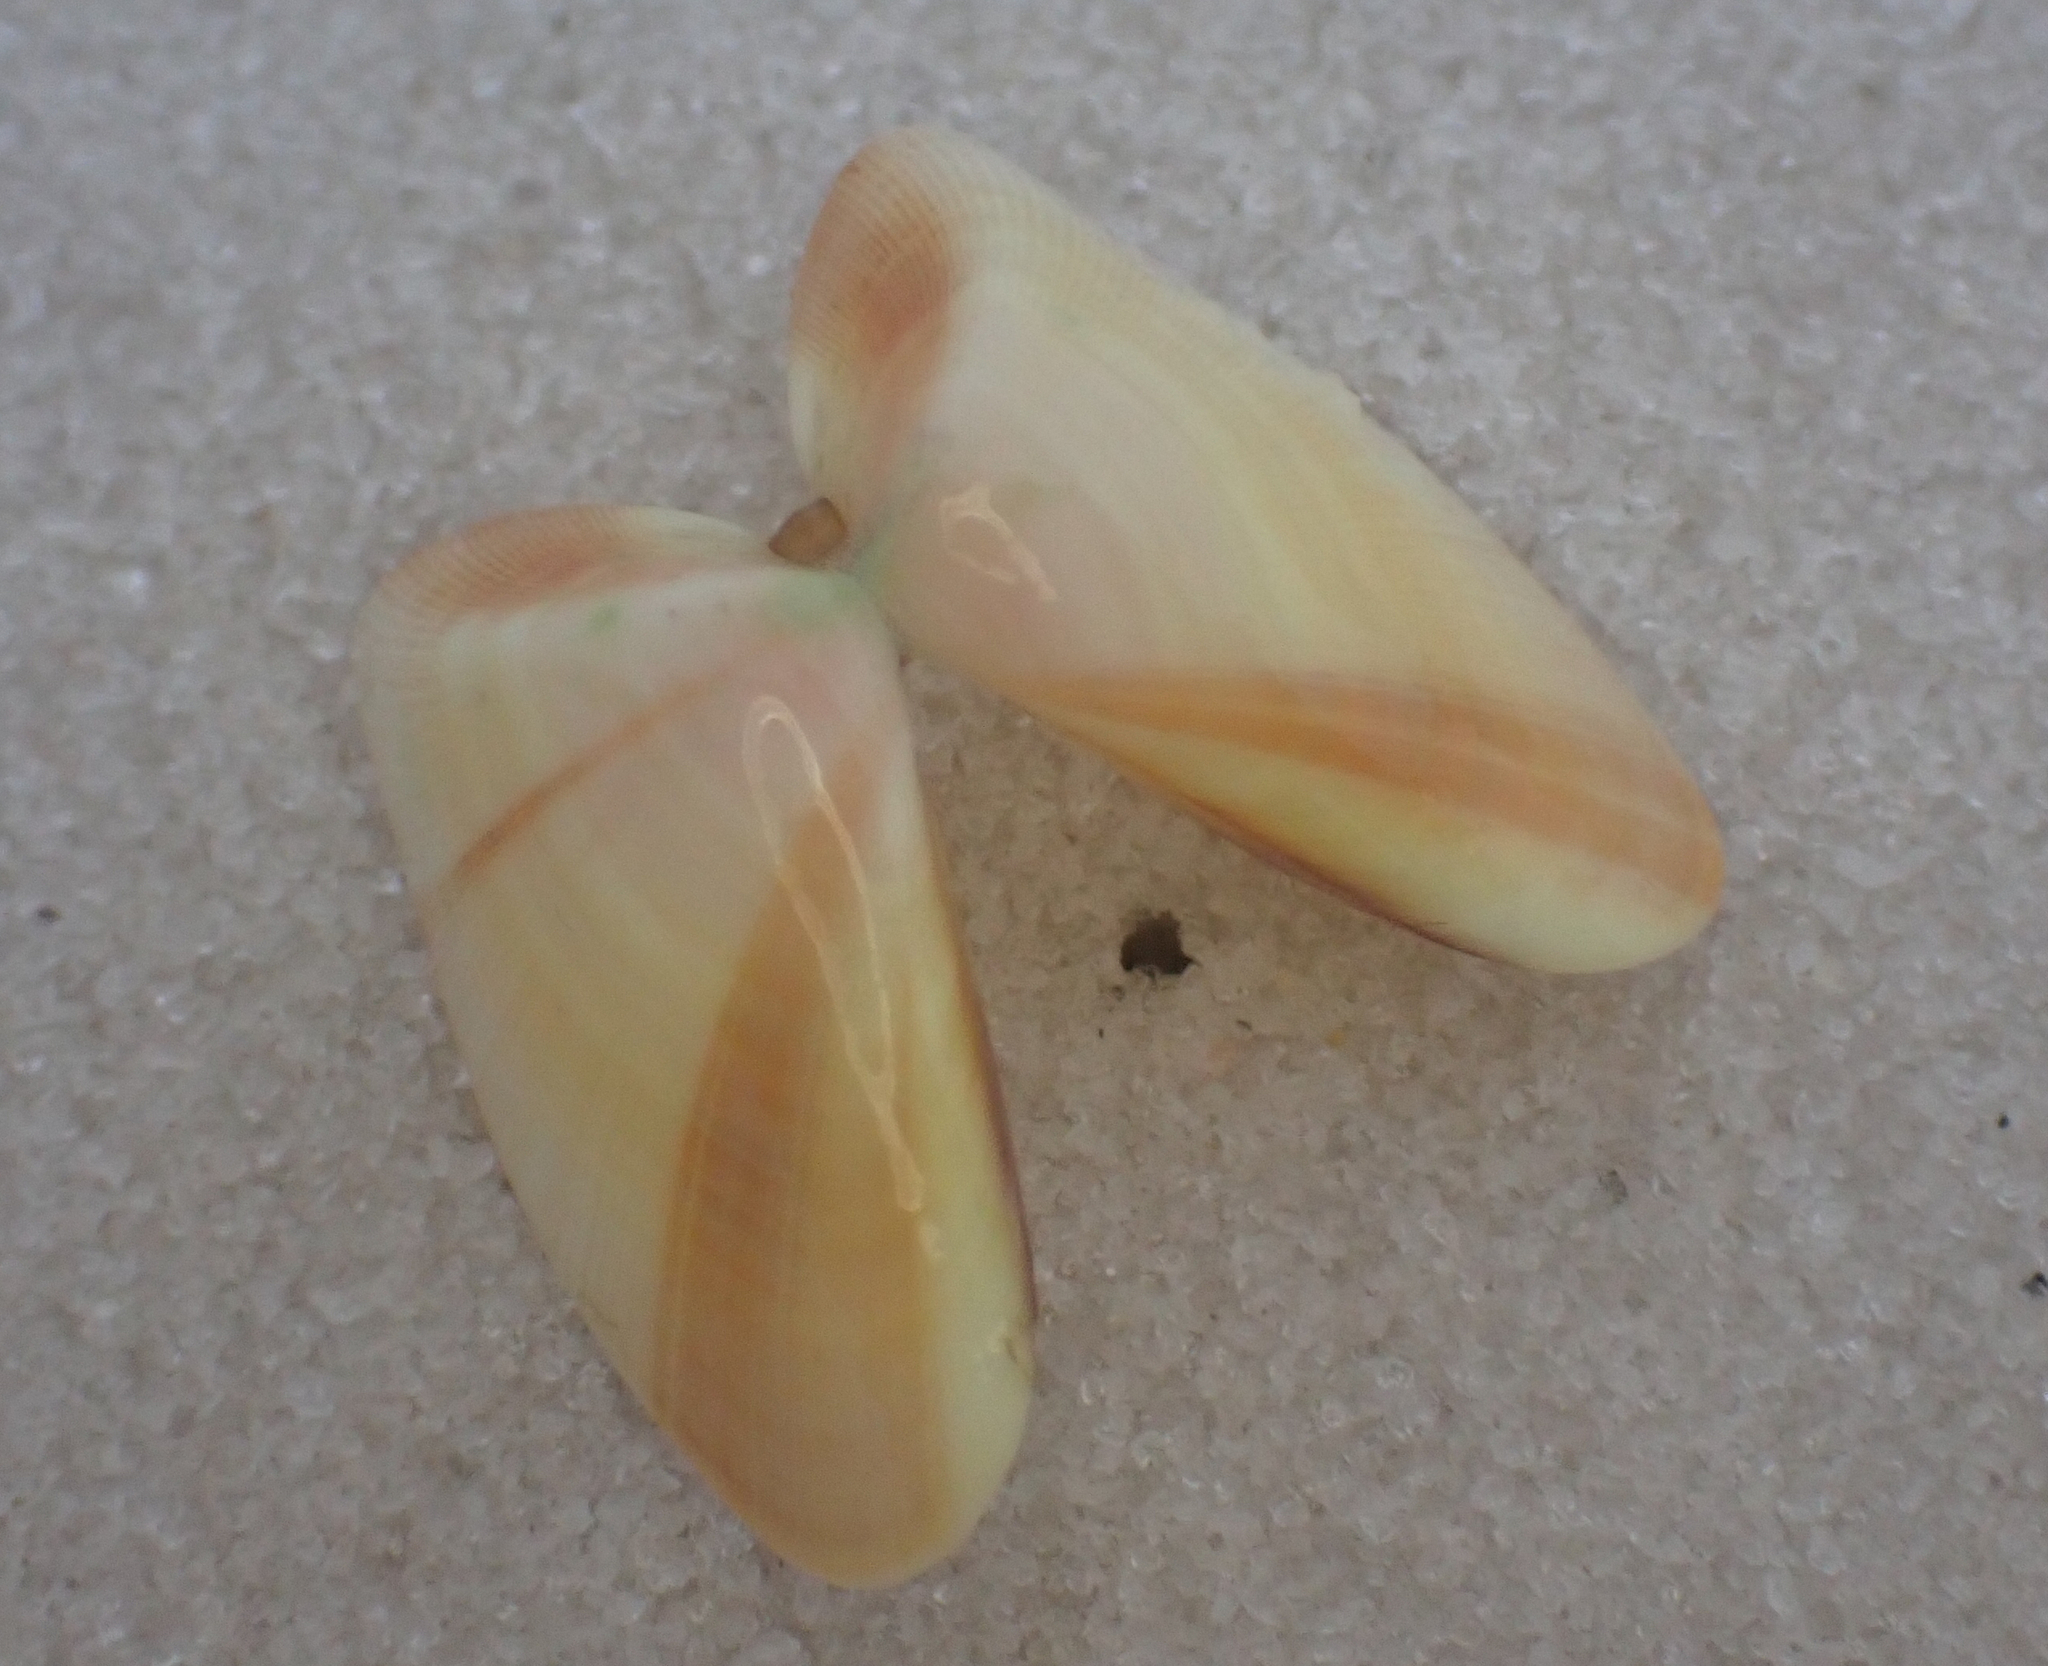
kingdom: Animalia
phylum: Mollusca
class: Bivalvia
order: Cardiida
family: Donacidae
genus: Donax
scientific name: Donax variabilis
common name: Butterfly shell
